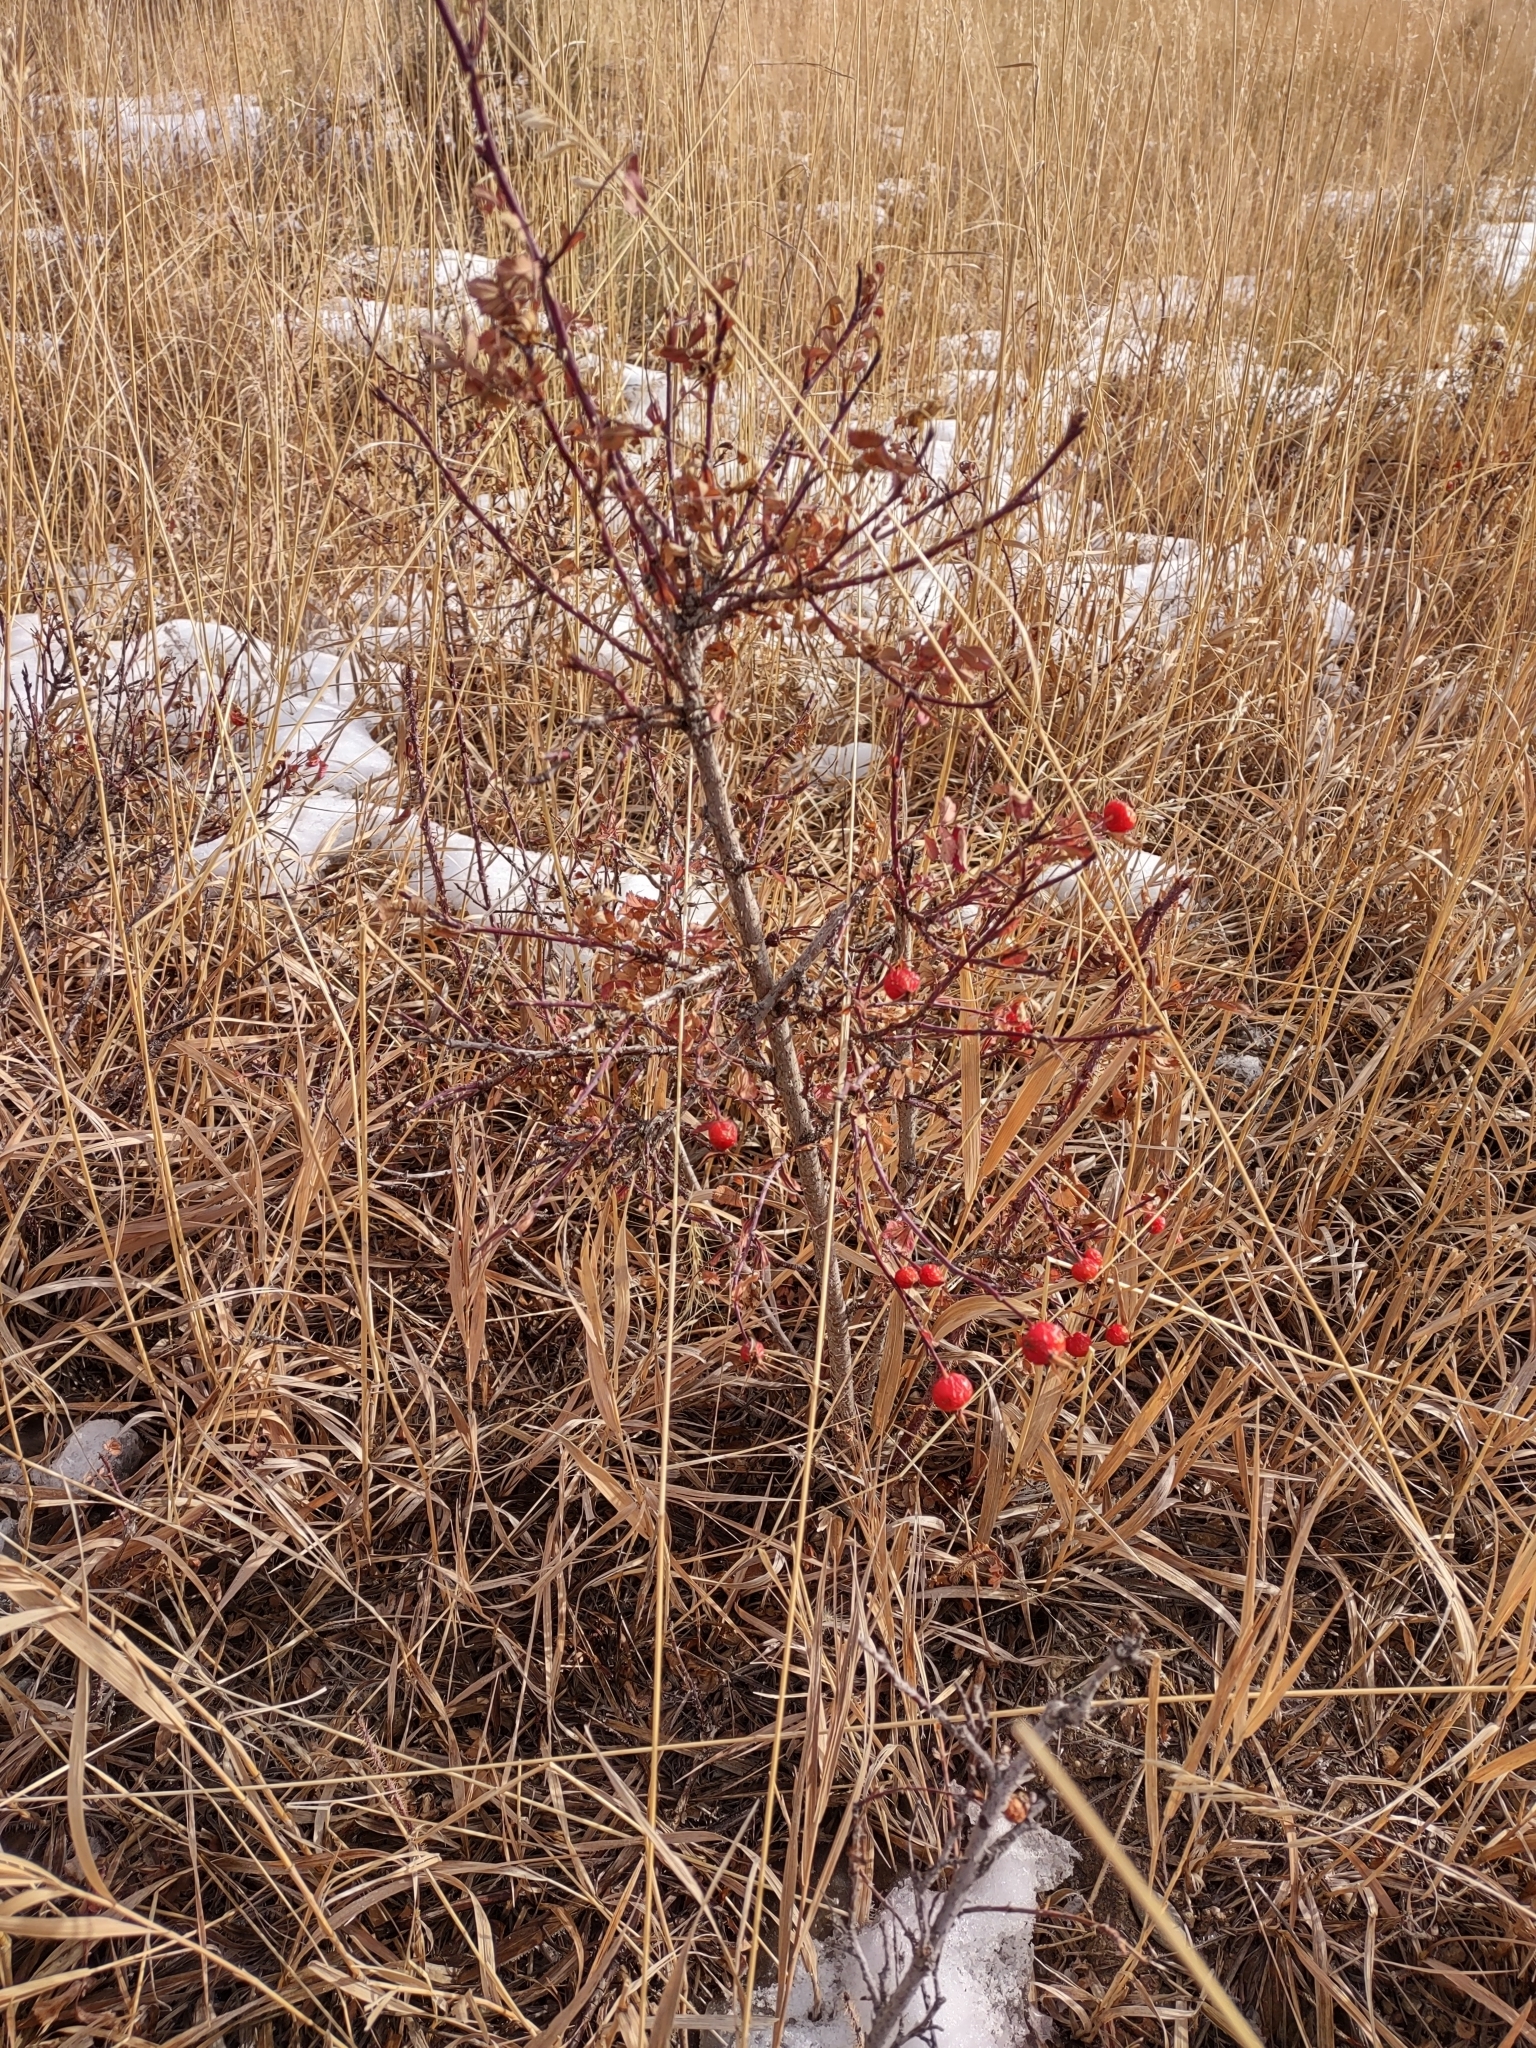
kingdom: Plantae
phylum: Tracheophyta
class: Magnoliopsida
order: Rosales
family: Rosaceae
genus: Rosa
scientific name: Rosa woodsii
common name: Woods's rose
